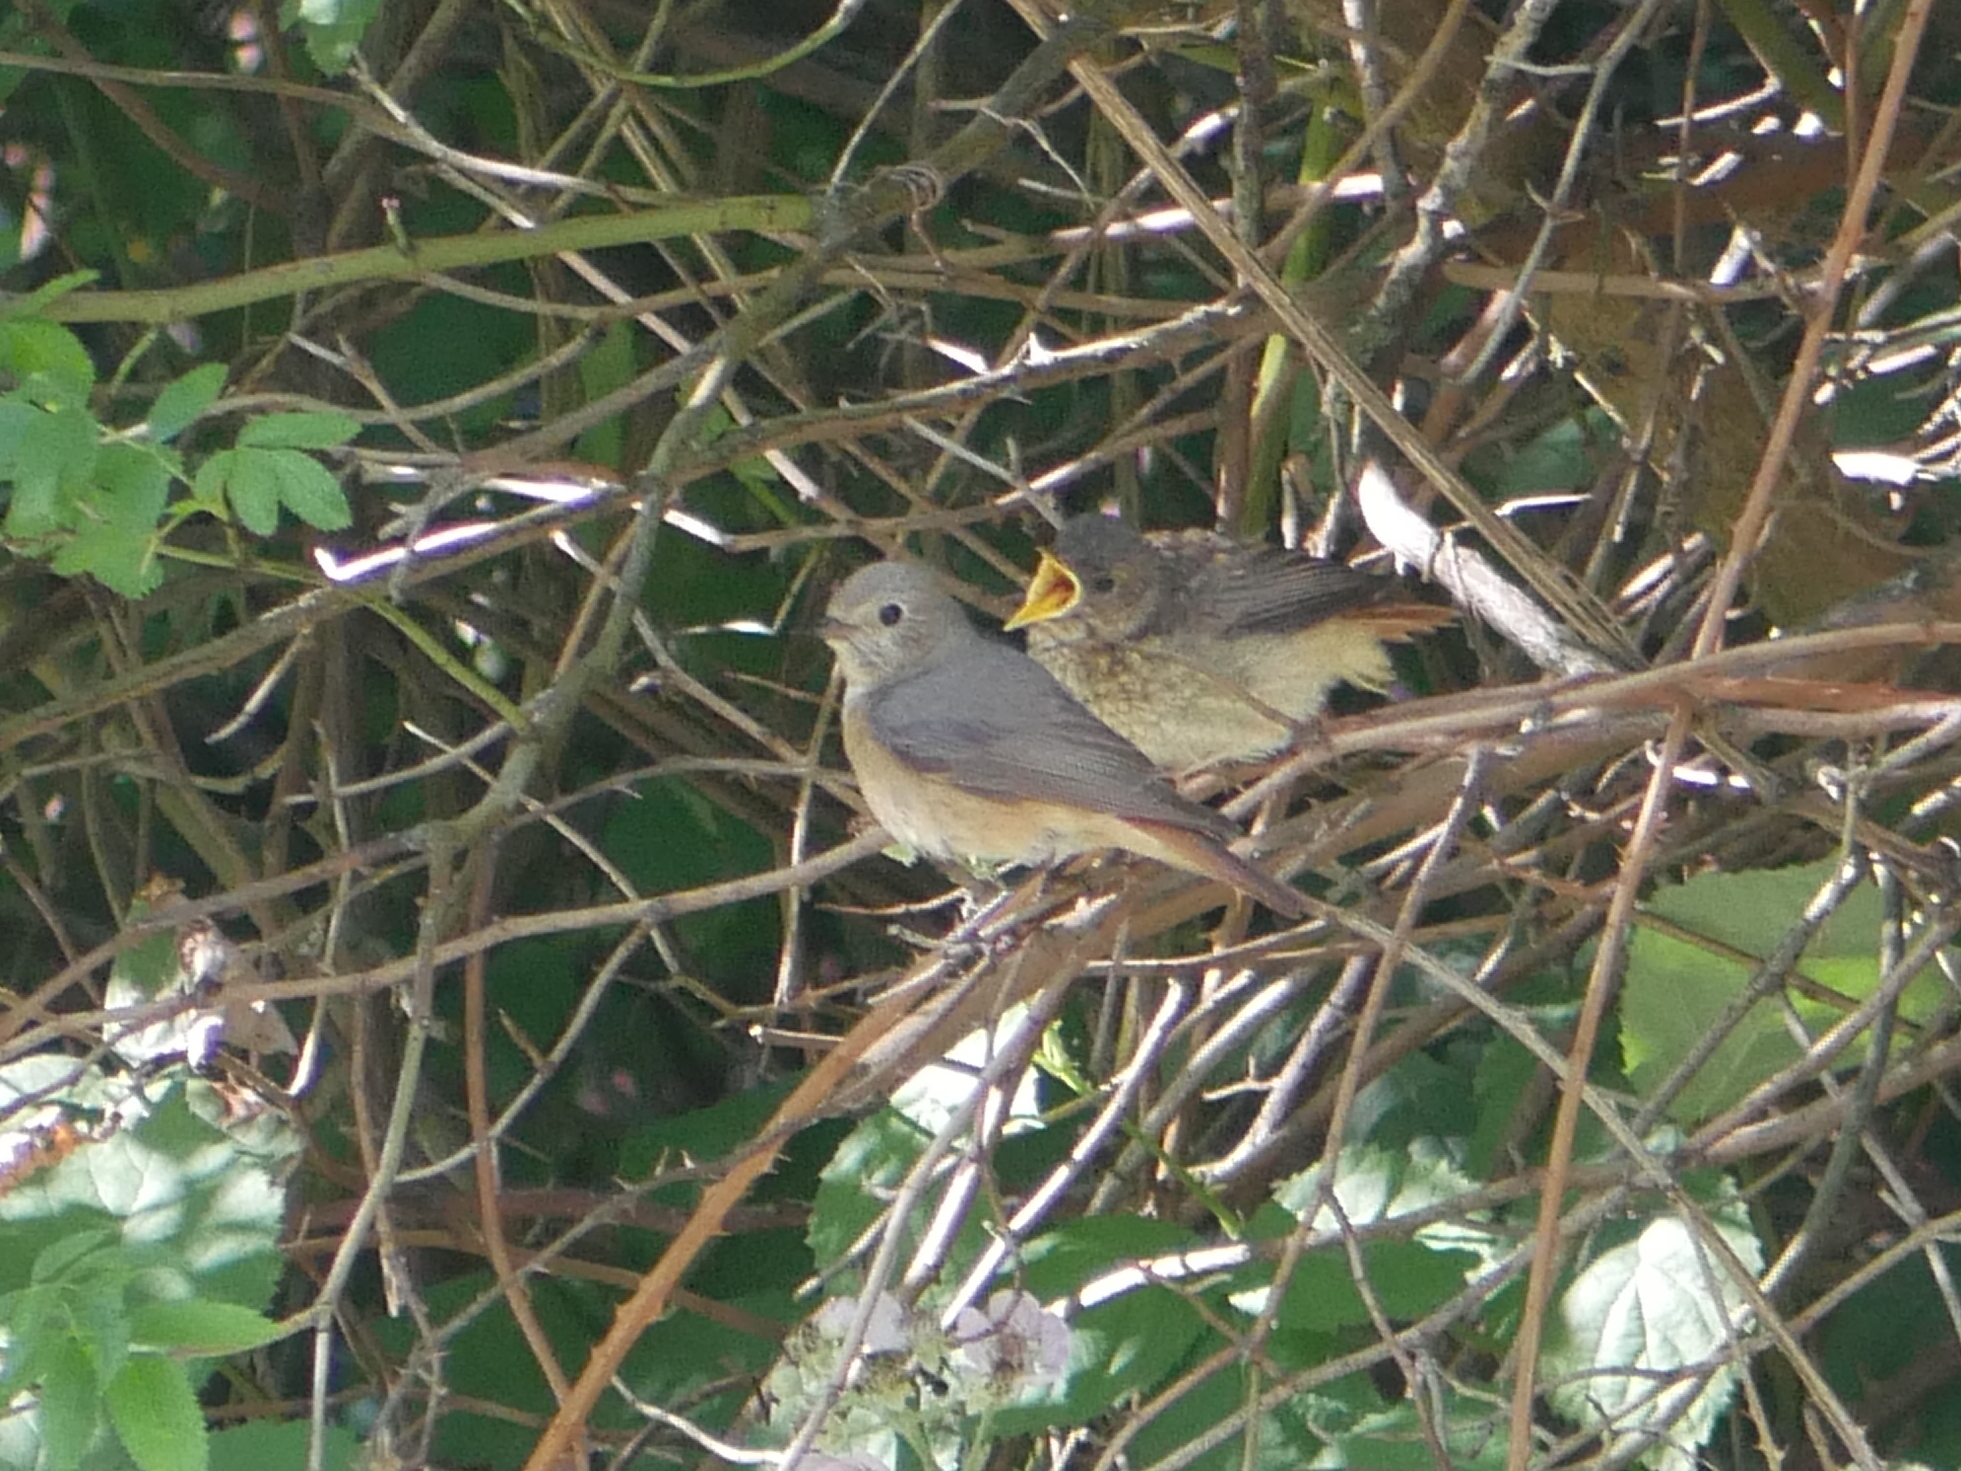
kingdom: Animalia
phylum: Chordata
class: Aves
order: Passeriformes
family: Muscicapidae
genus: Phoenicurus
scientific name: Phoenicurus phoenicurus
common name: Common redstart
